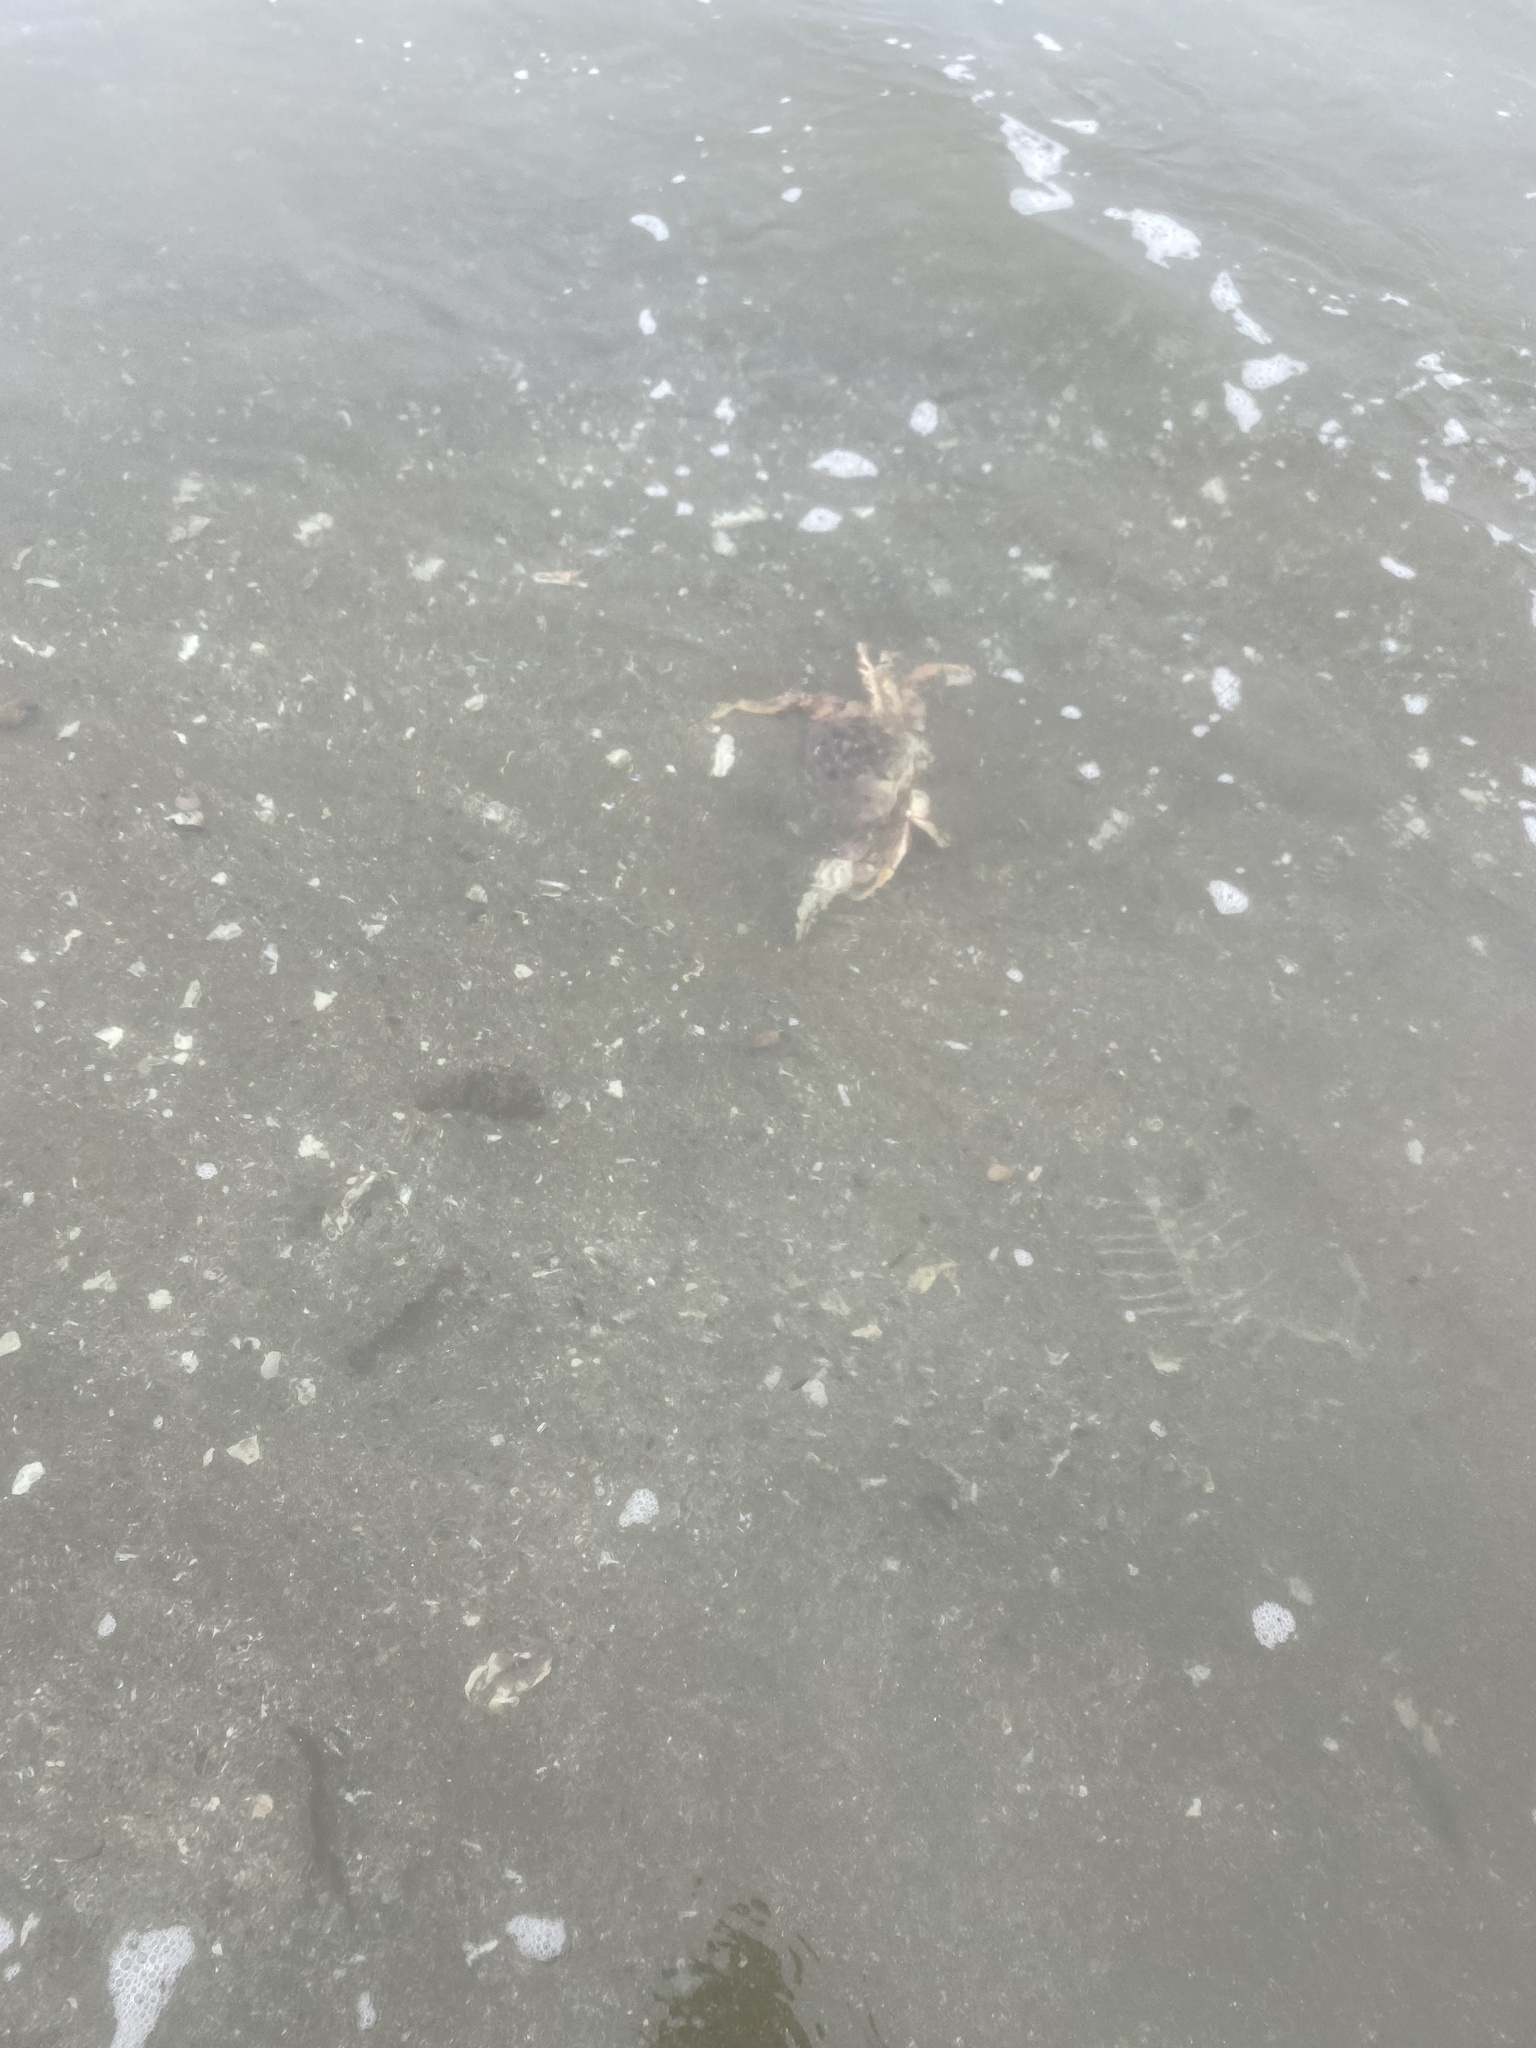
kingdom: Animalia
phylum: Arthropoda
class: Malacostraca
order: Decapoda
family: Cancridae
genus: Metacarcinus
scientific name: Metacarcinus magister
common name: Californian crab
